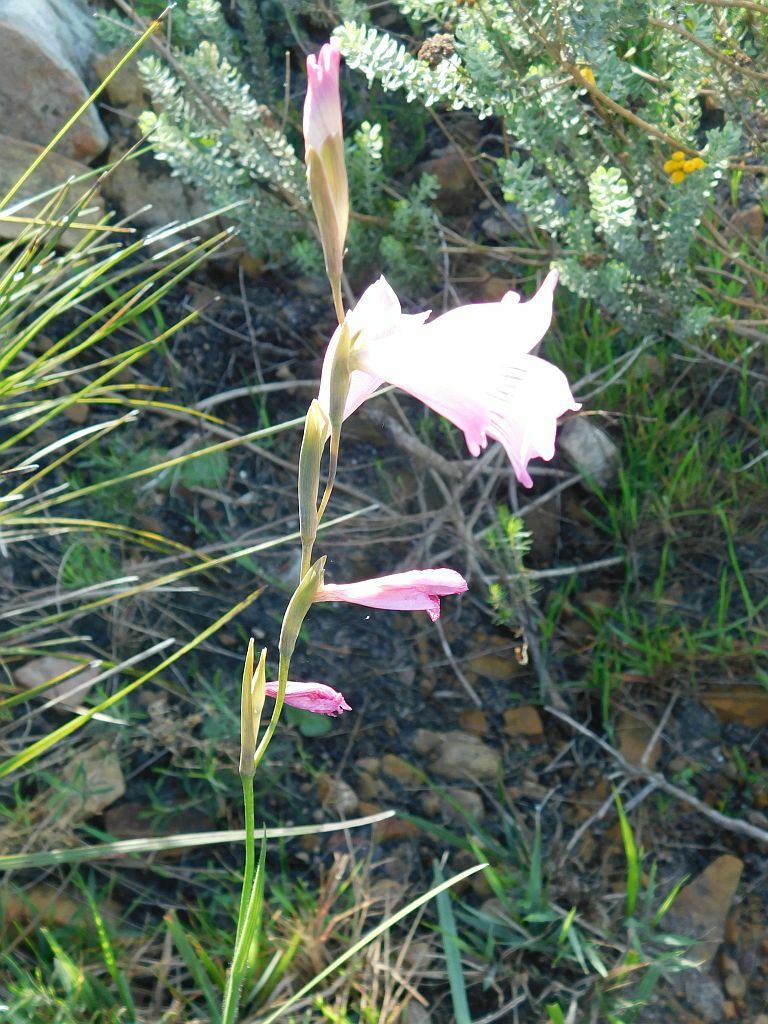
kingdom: Plantae
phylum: Tracheophyta
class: Liliopsida
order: Asparagales
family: Iridaceae
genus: Gladiolus
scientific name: Gladiolus hirsutus
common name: Small pink afrikaner
